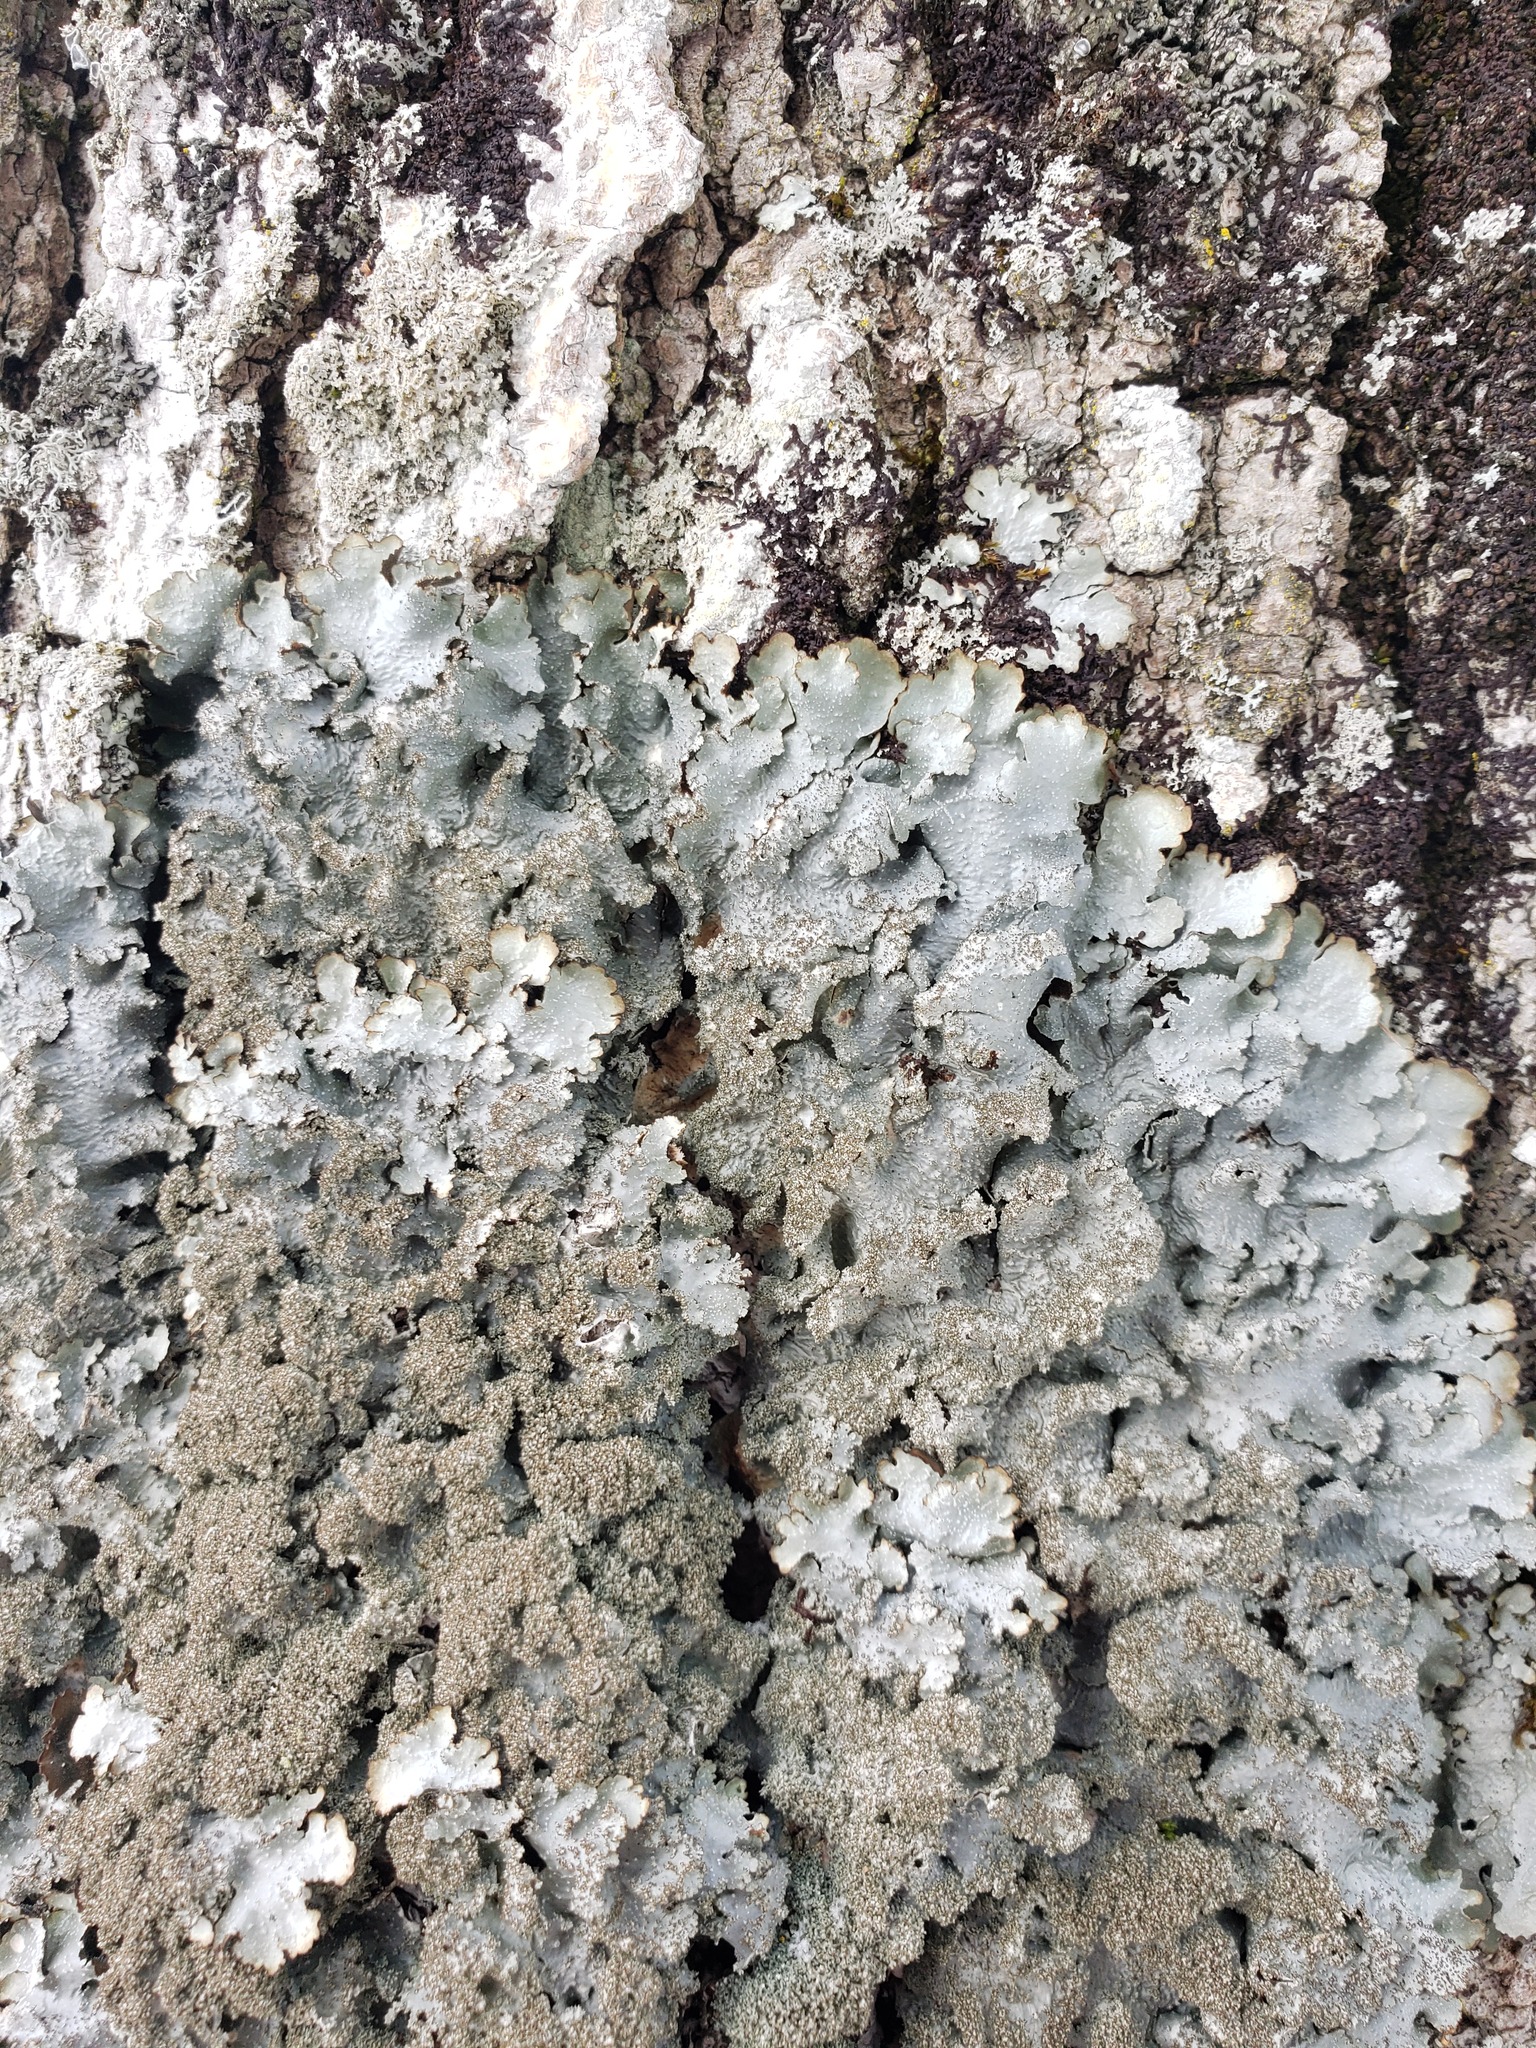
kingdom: Fungi
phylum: Ascomycota
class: Lecanoromycetes
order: Lecanorales
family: Parmeliaceae
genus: Punctelia
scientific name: Punctelia rudecta
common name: Rough speckled shield lichen
